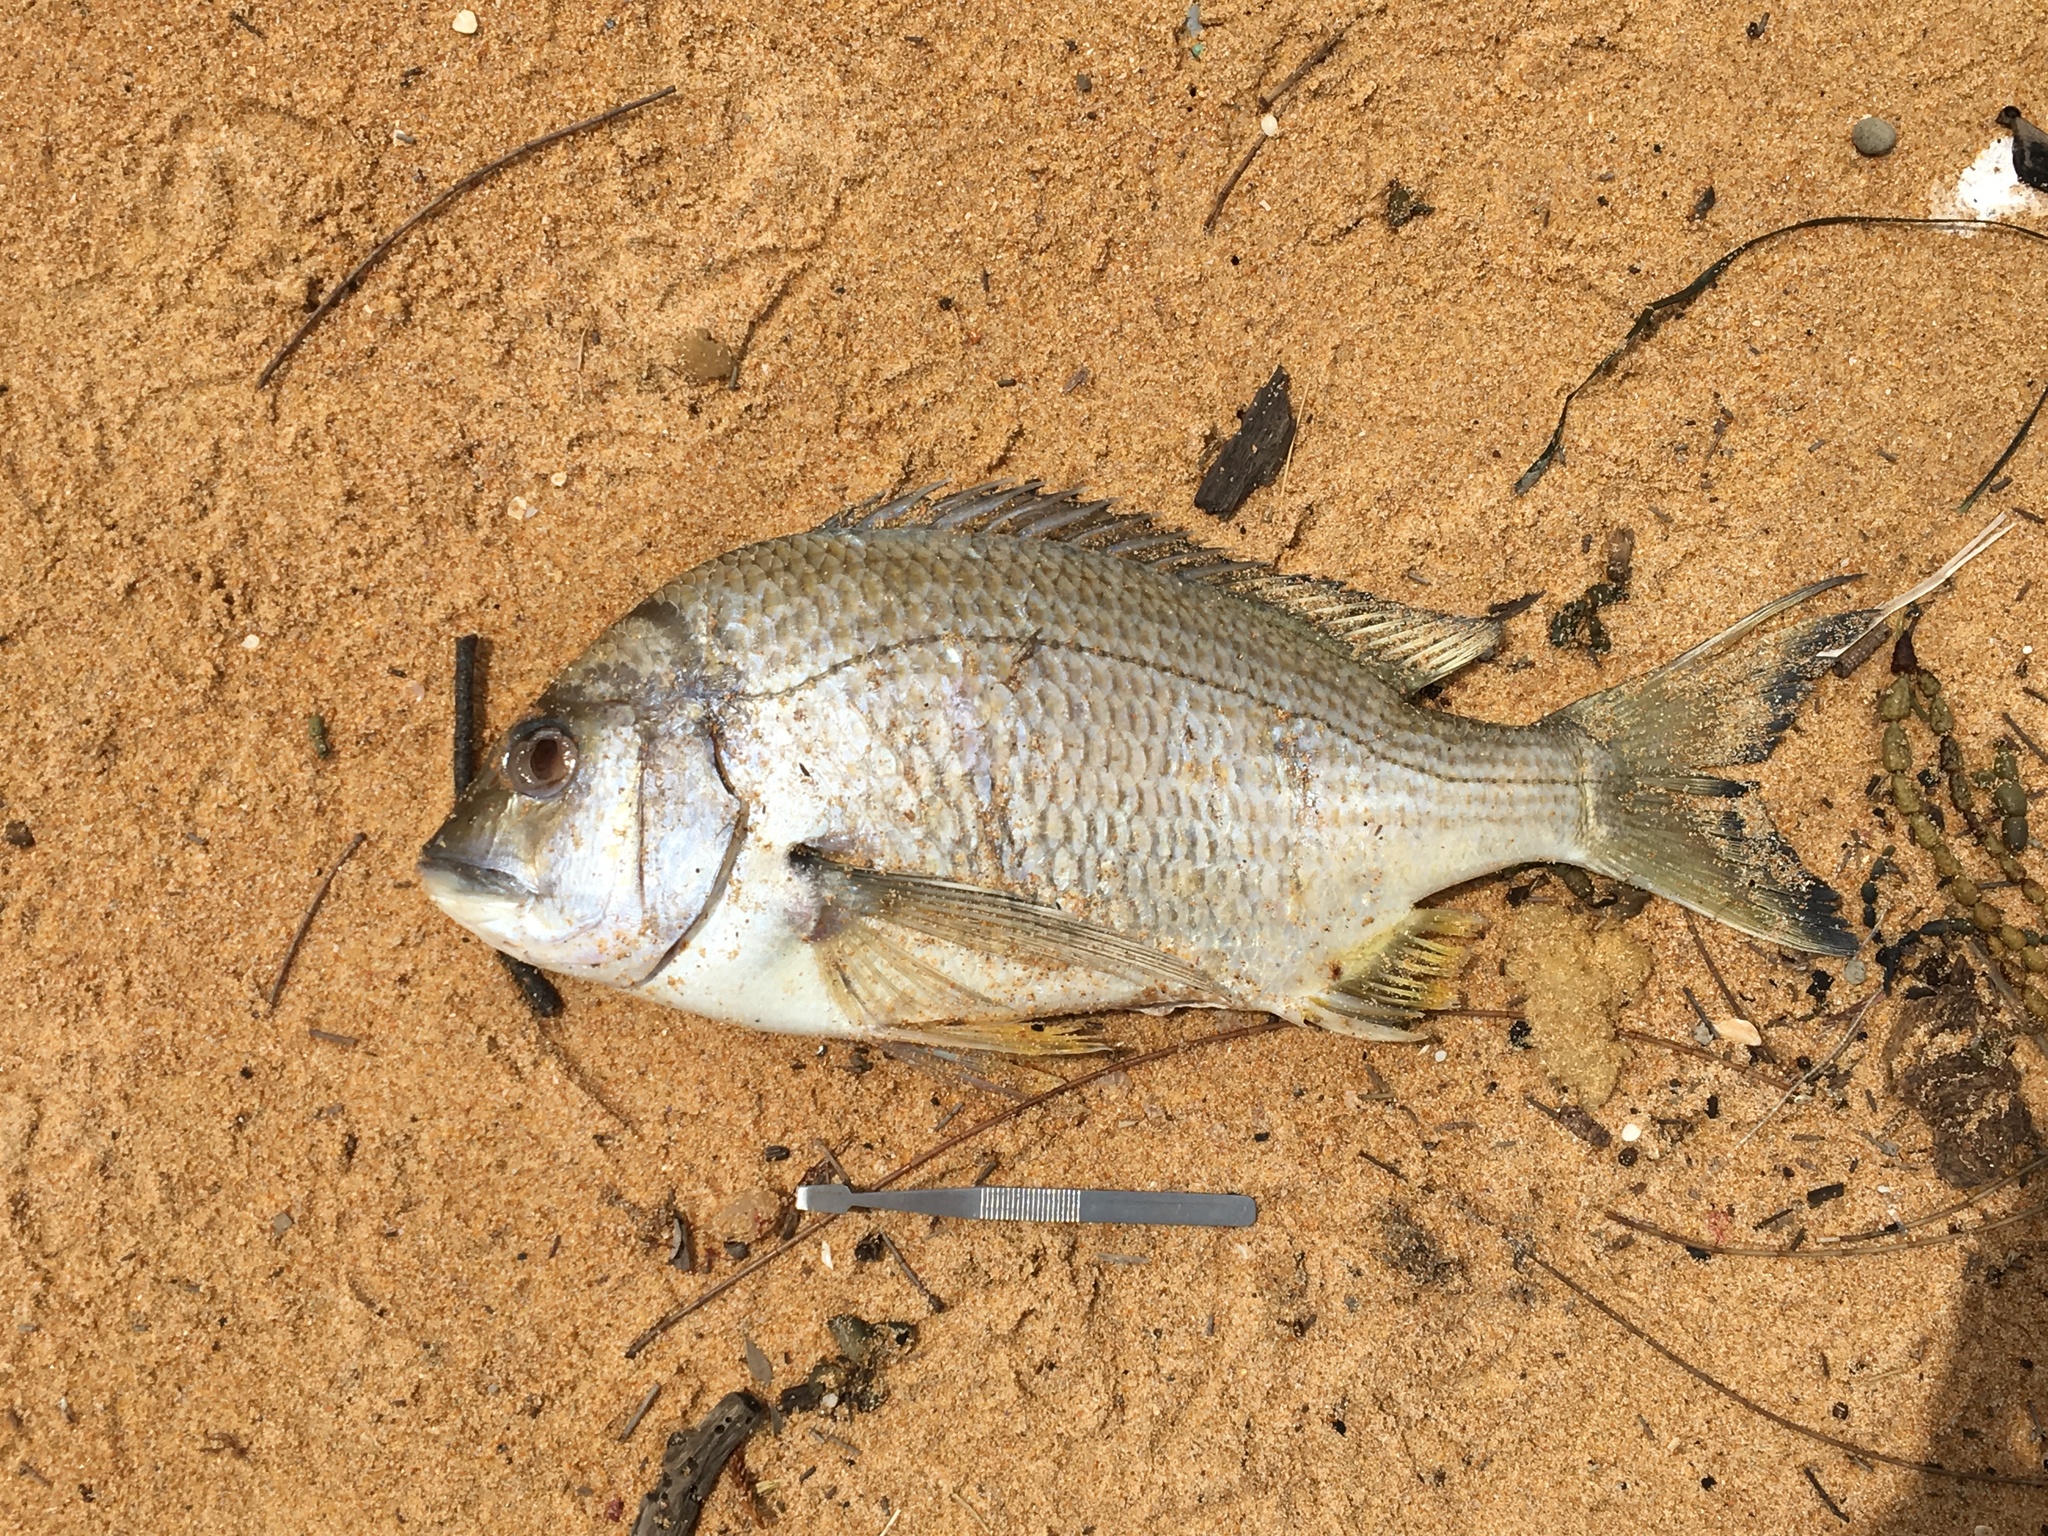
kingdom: Animalia
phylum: Chordata
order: Perciformes
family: Sparidae
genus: Acanthopagrus
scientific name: Acanthopagrus australis
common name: Surf bream
